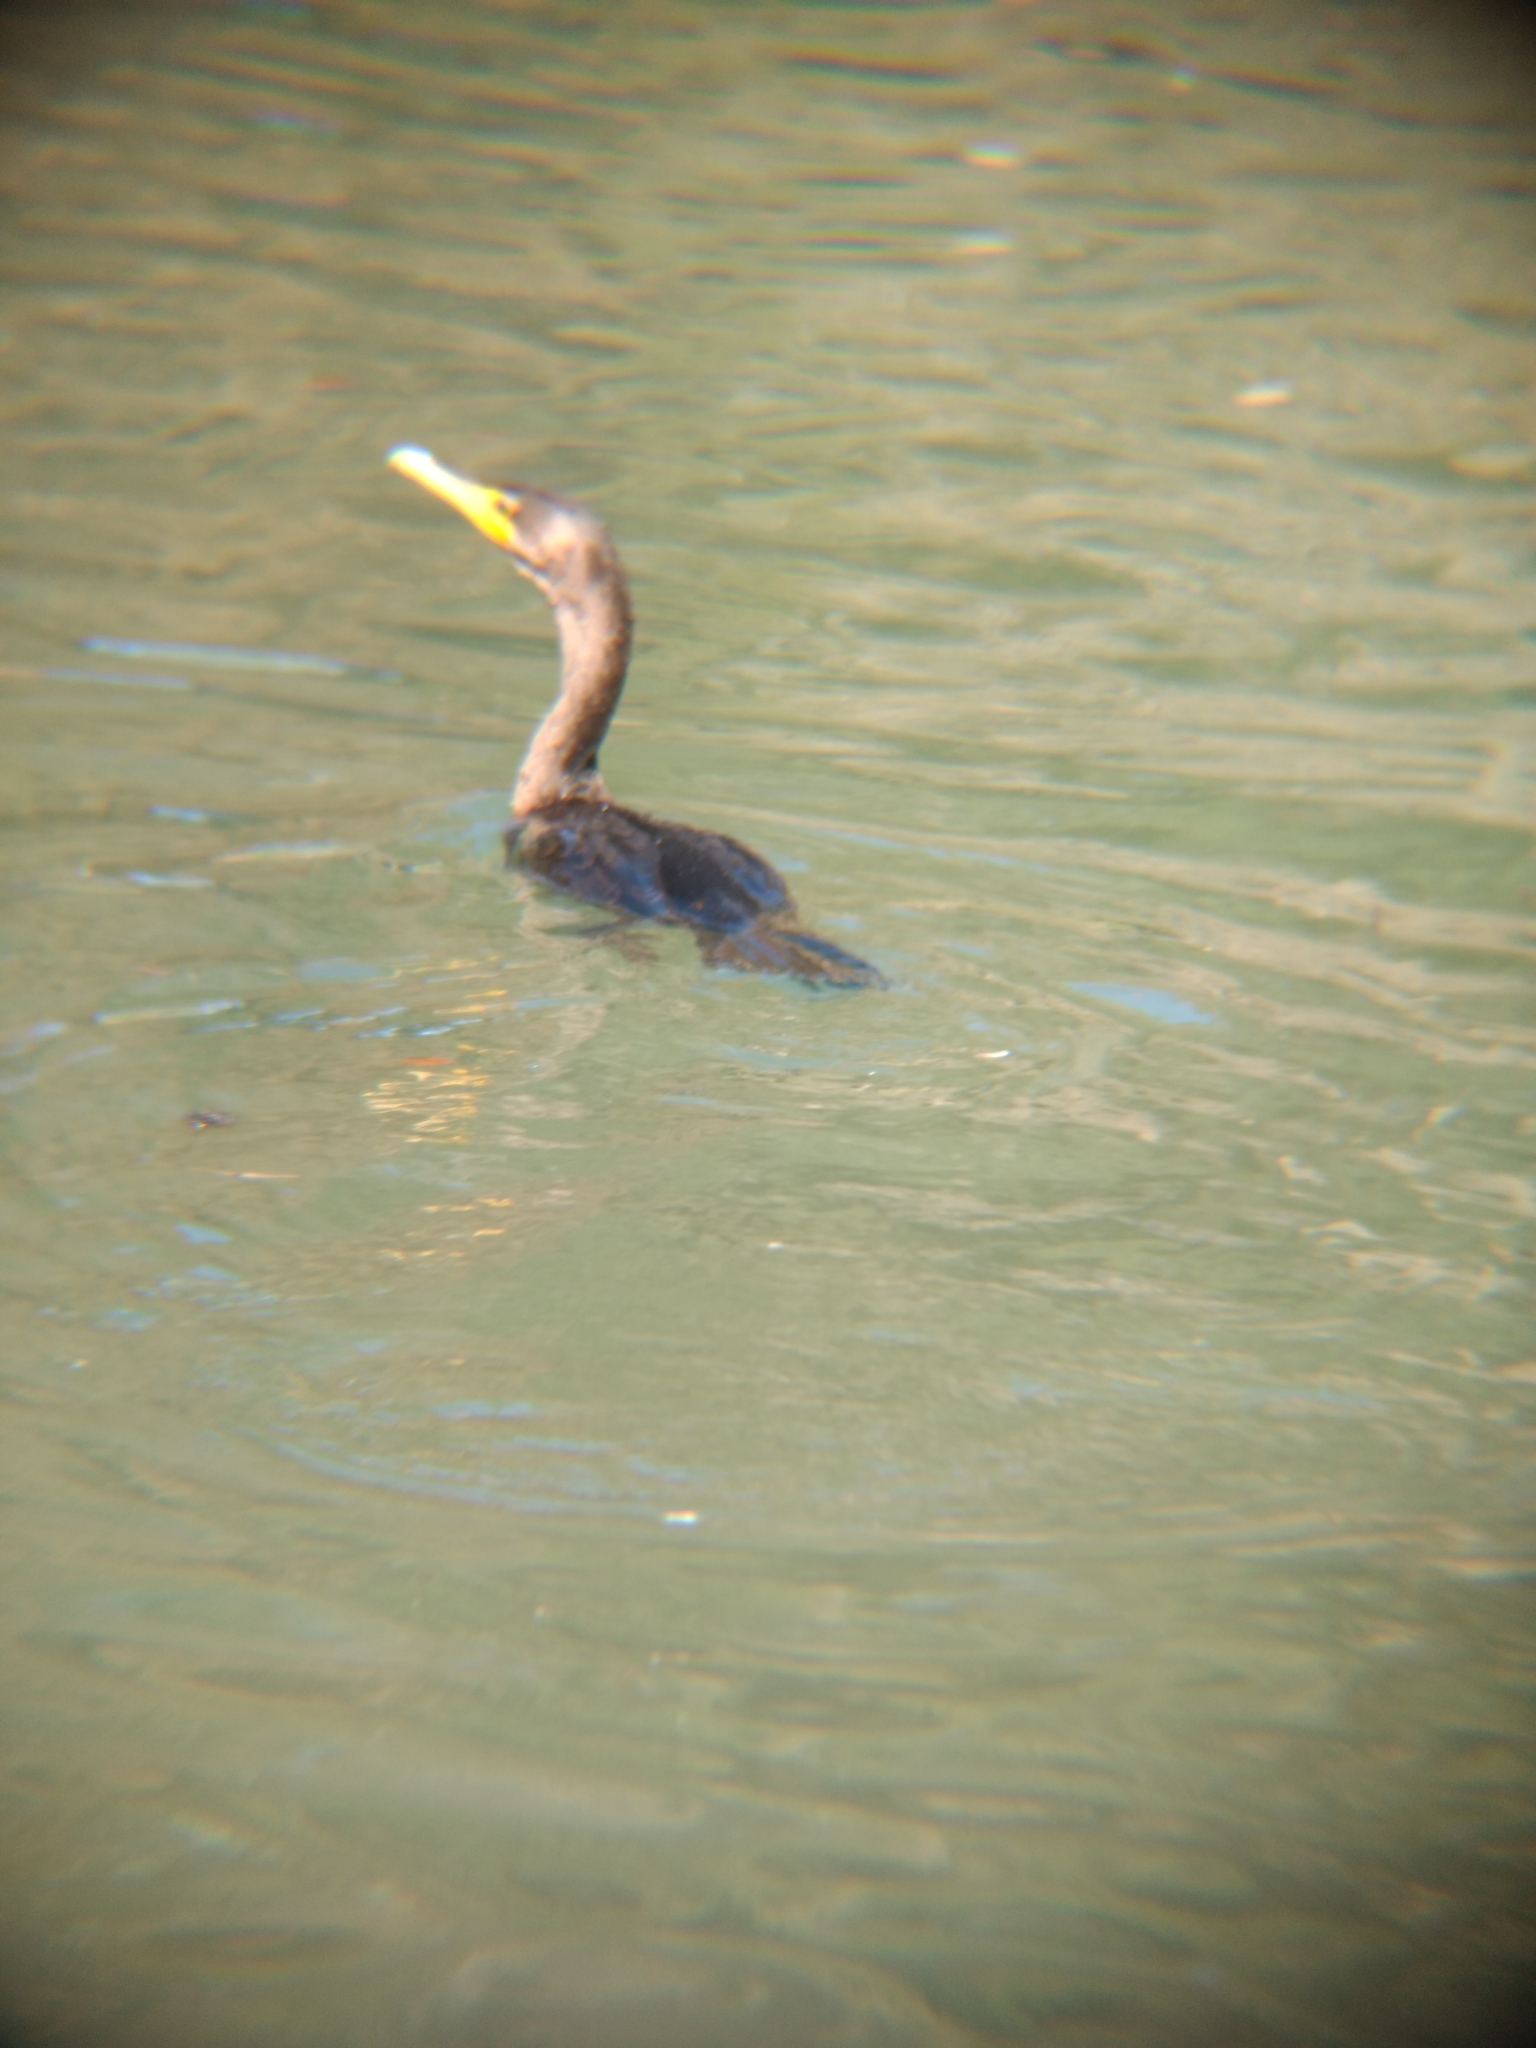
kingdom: Animalia
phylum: Chordata
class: Aves
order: Suliformes
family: Phalacrocoracidae
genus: Phalacrocorax
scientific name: Phalacrocorax auritus
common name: Double-crested cormorant
